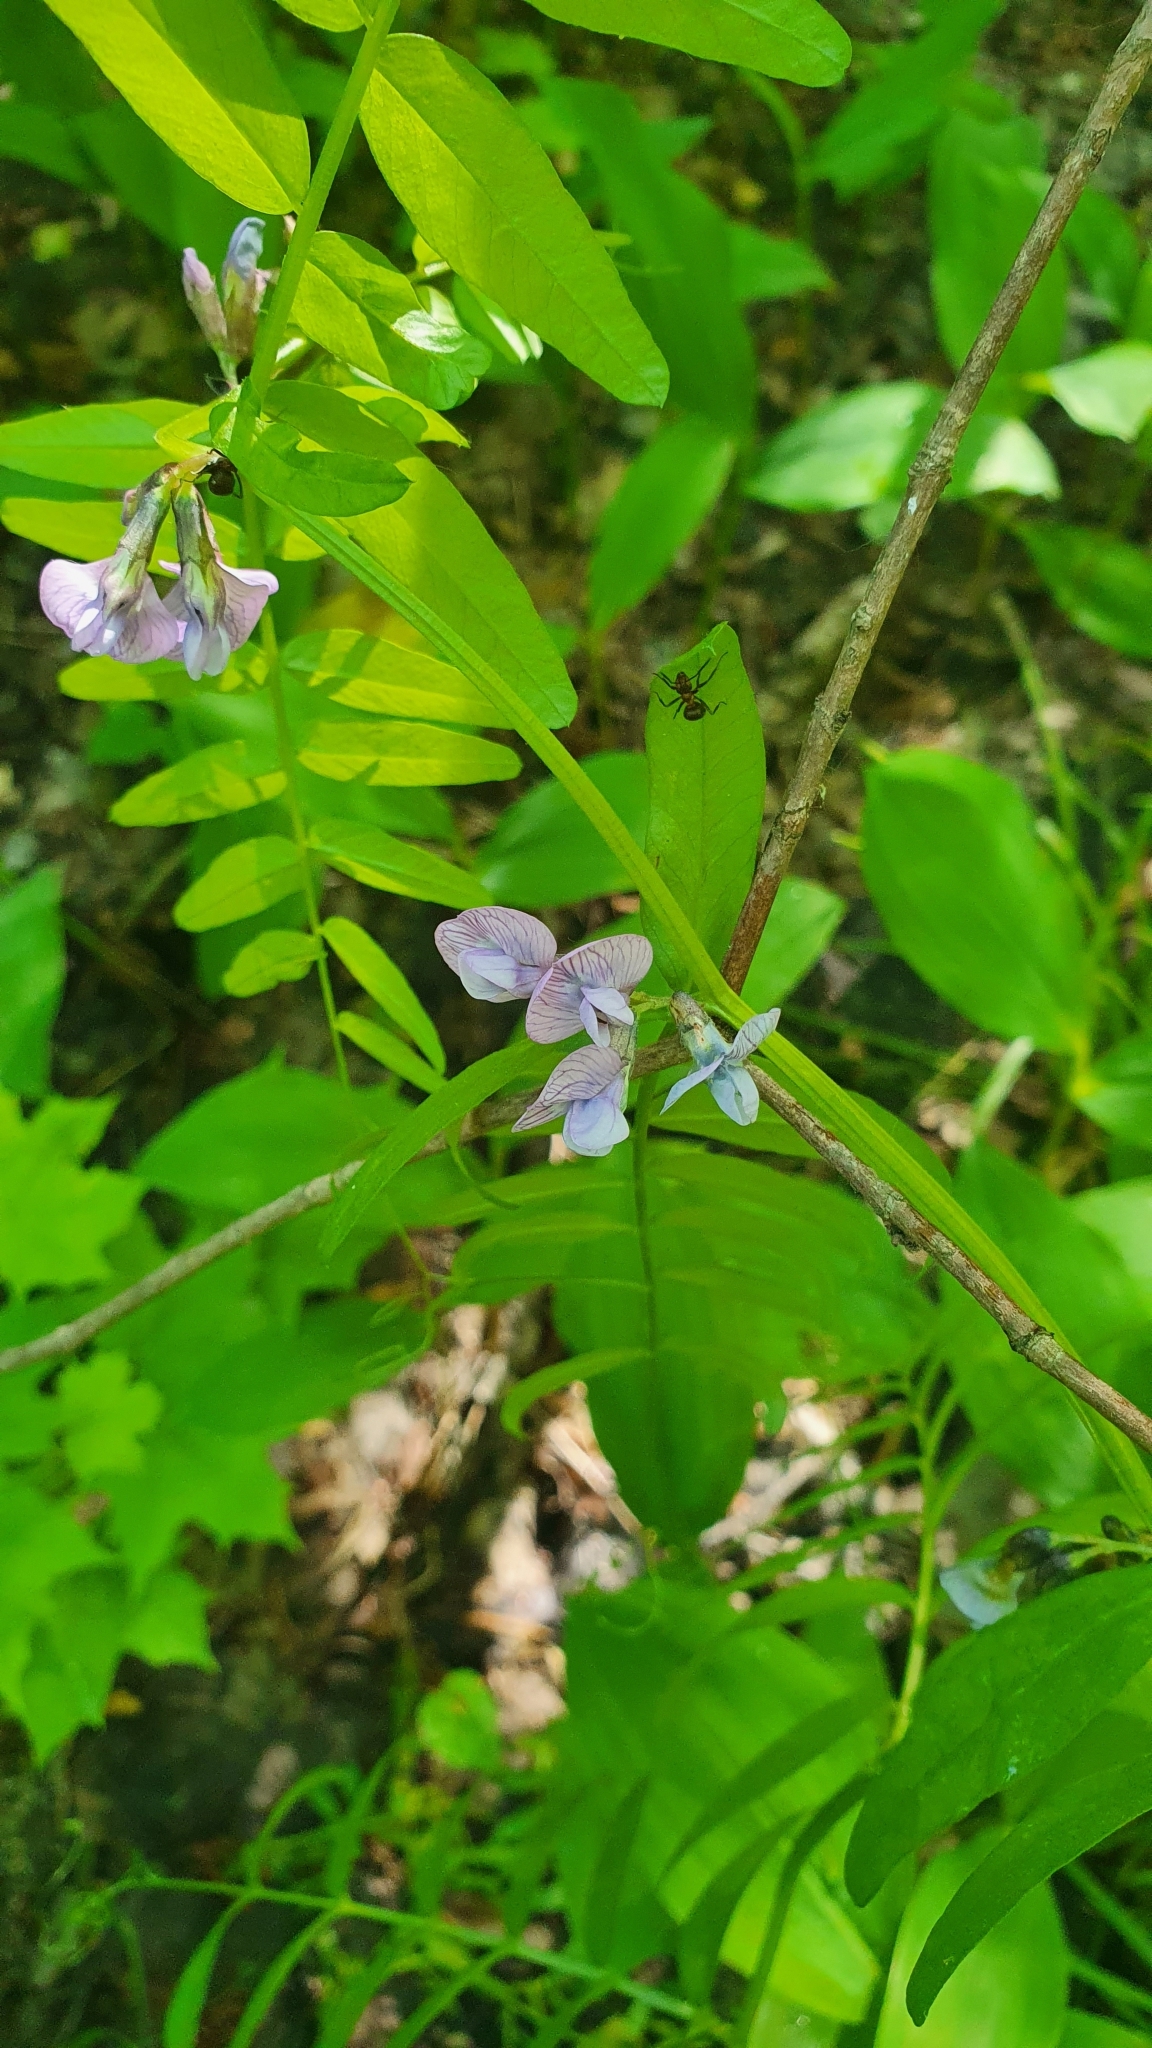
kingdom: Plantae
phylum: Tracheophyta
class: Magnoliopsida
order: Fabales
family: Fabaceae
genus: Vicia
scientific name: Vicia sepium
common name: Bush vetch
